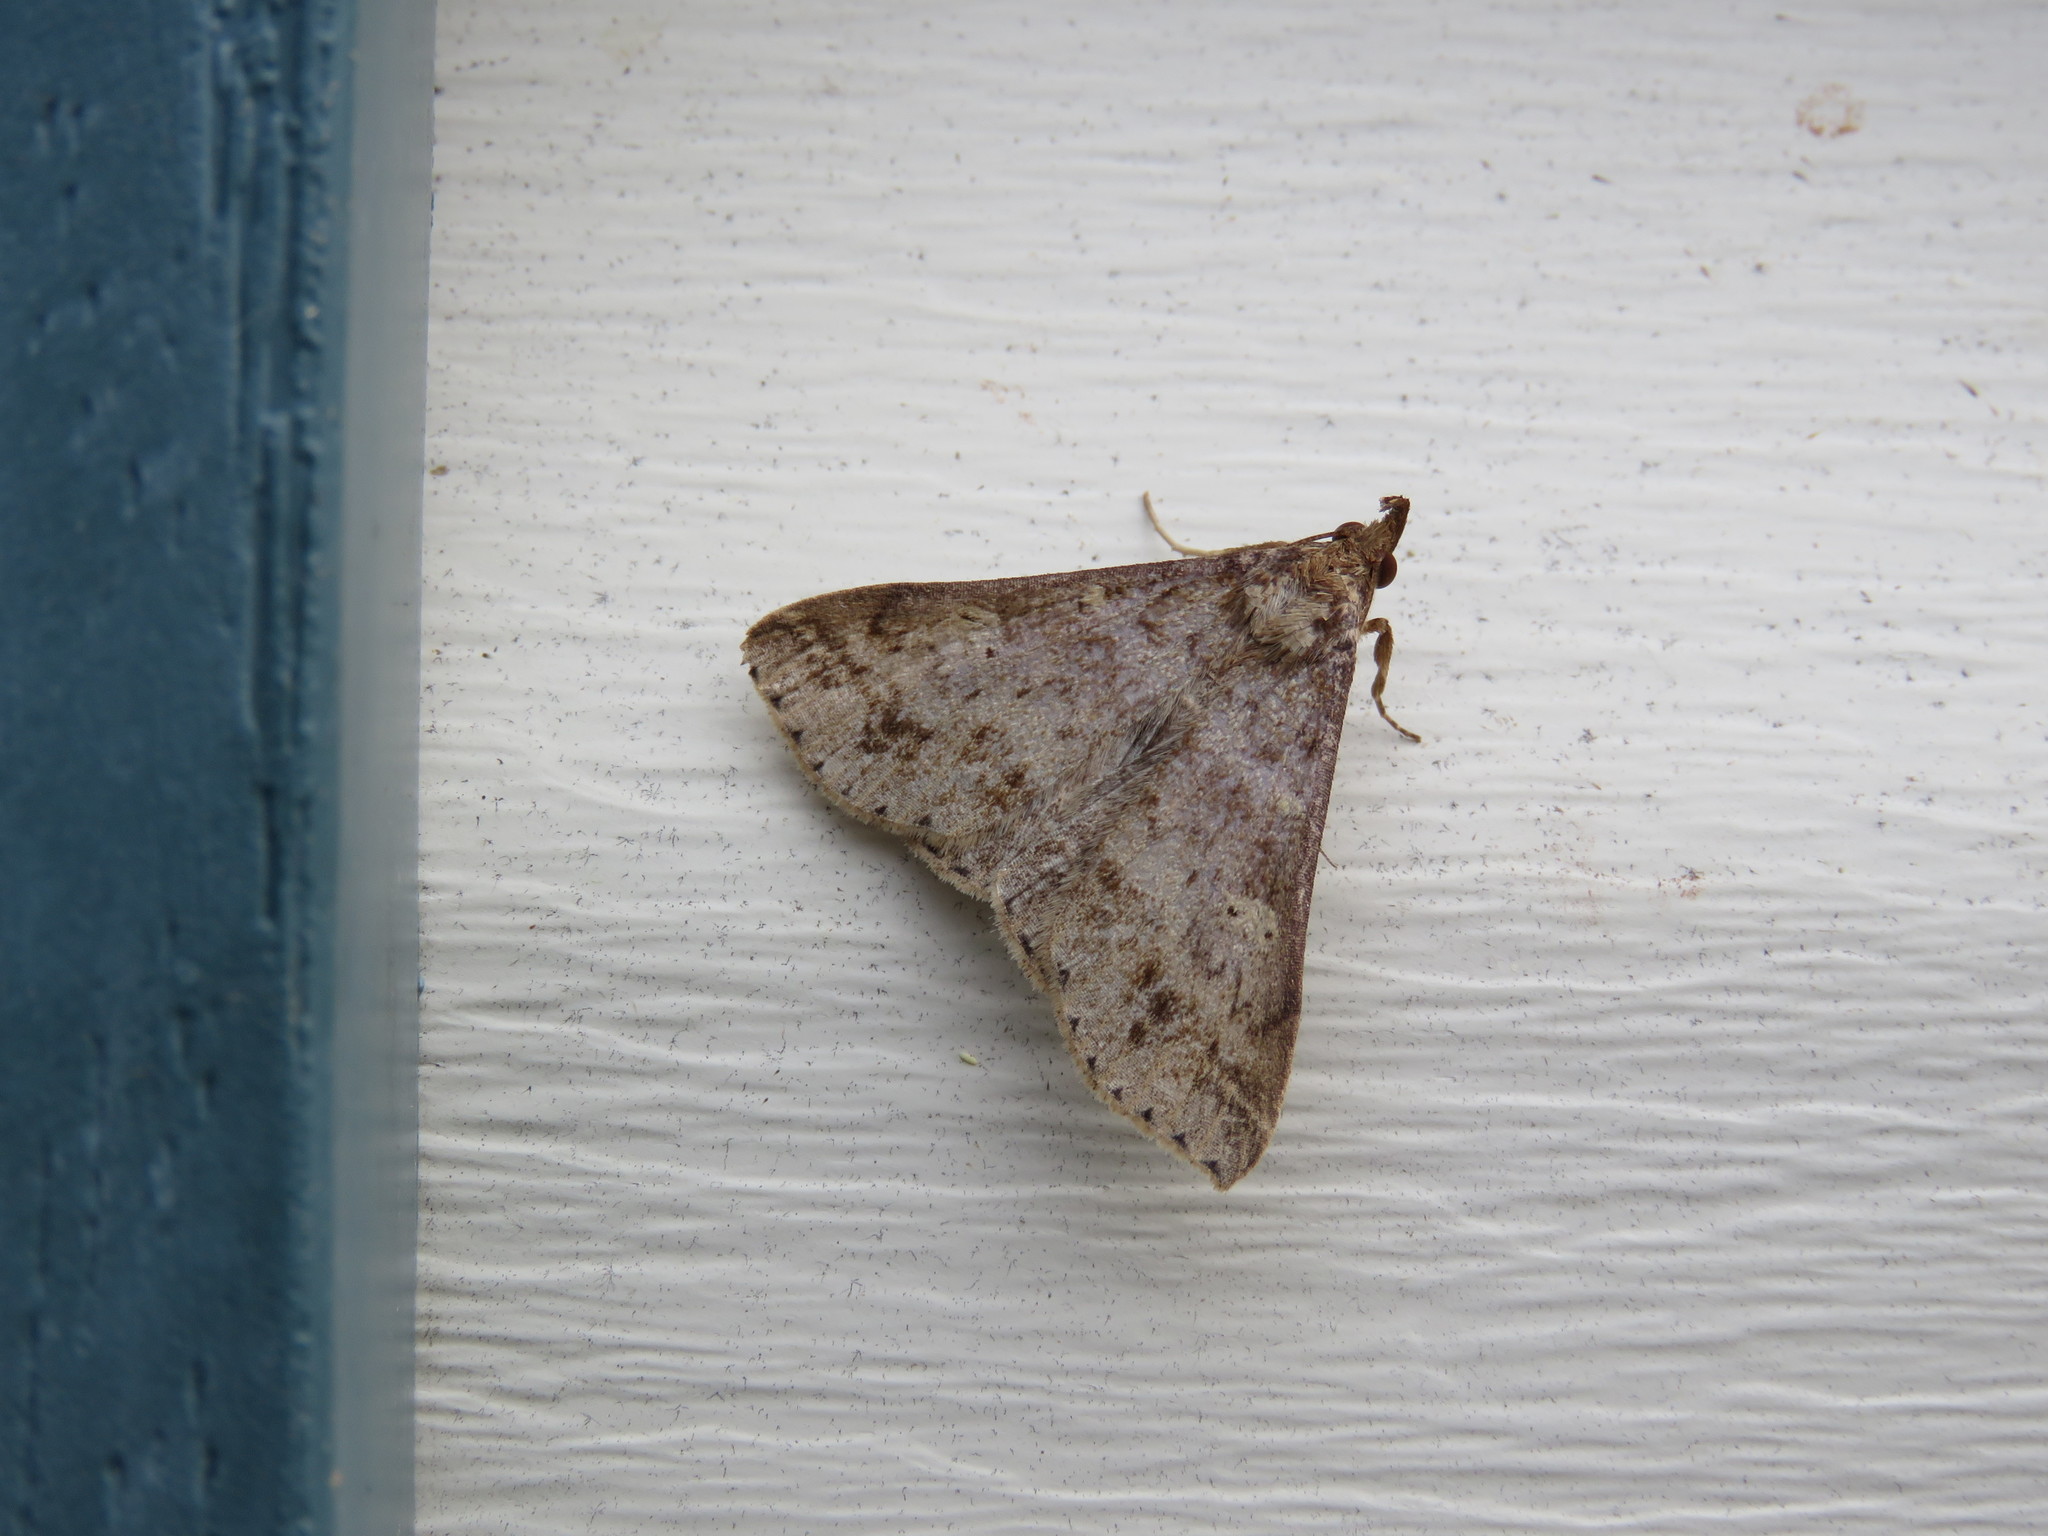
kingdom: Animalia
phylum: Arthropoda
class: Insecta
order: Lepidoptera
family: Erebidae
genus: Renia
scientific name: Renia discoloralis
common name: Discolored renia moth
